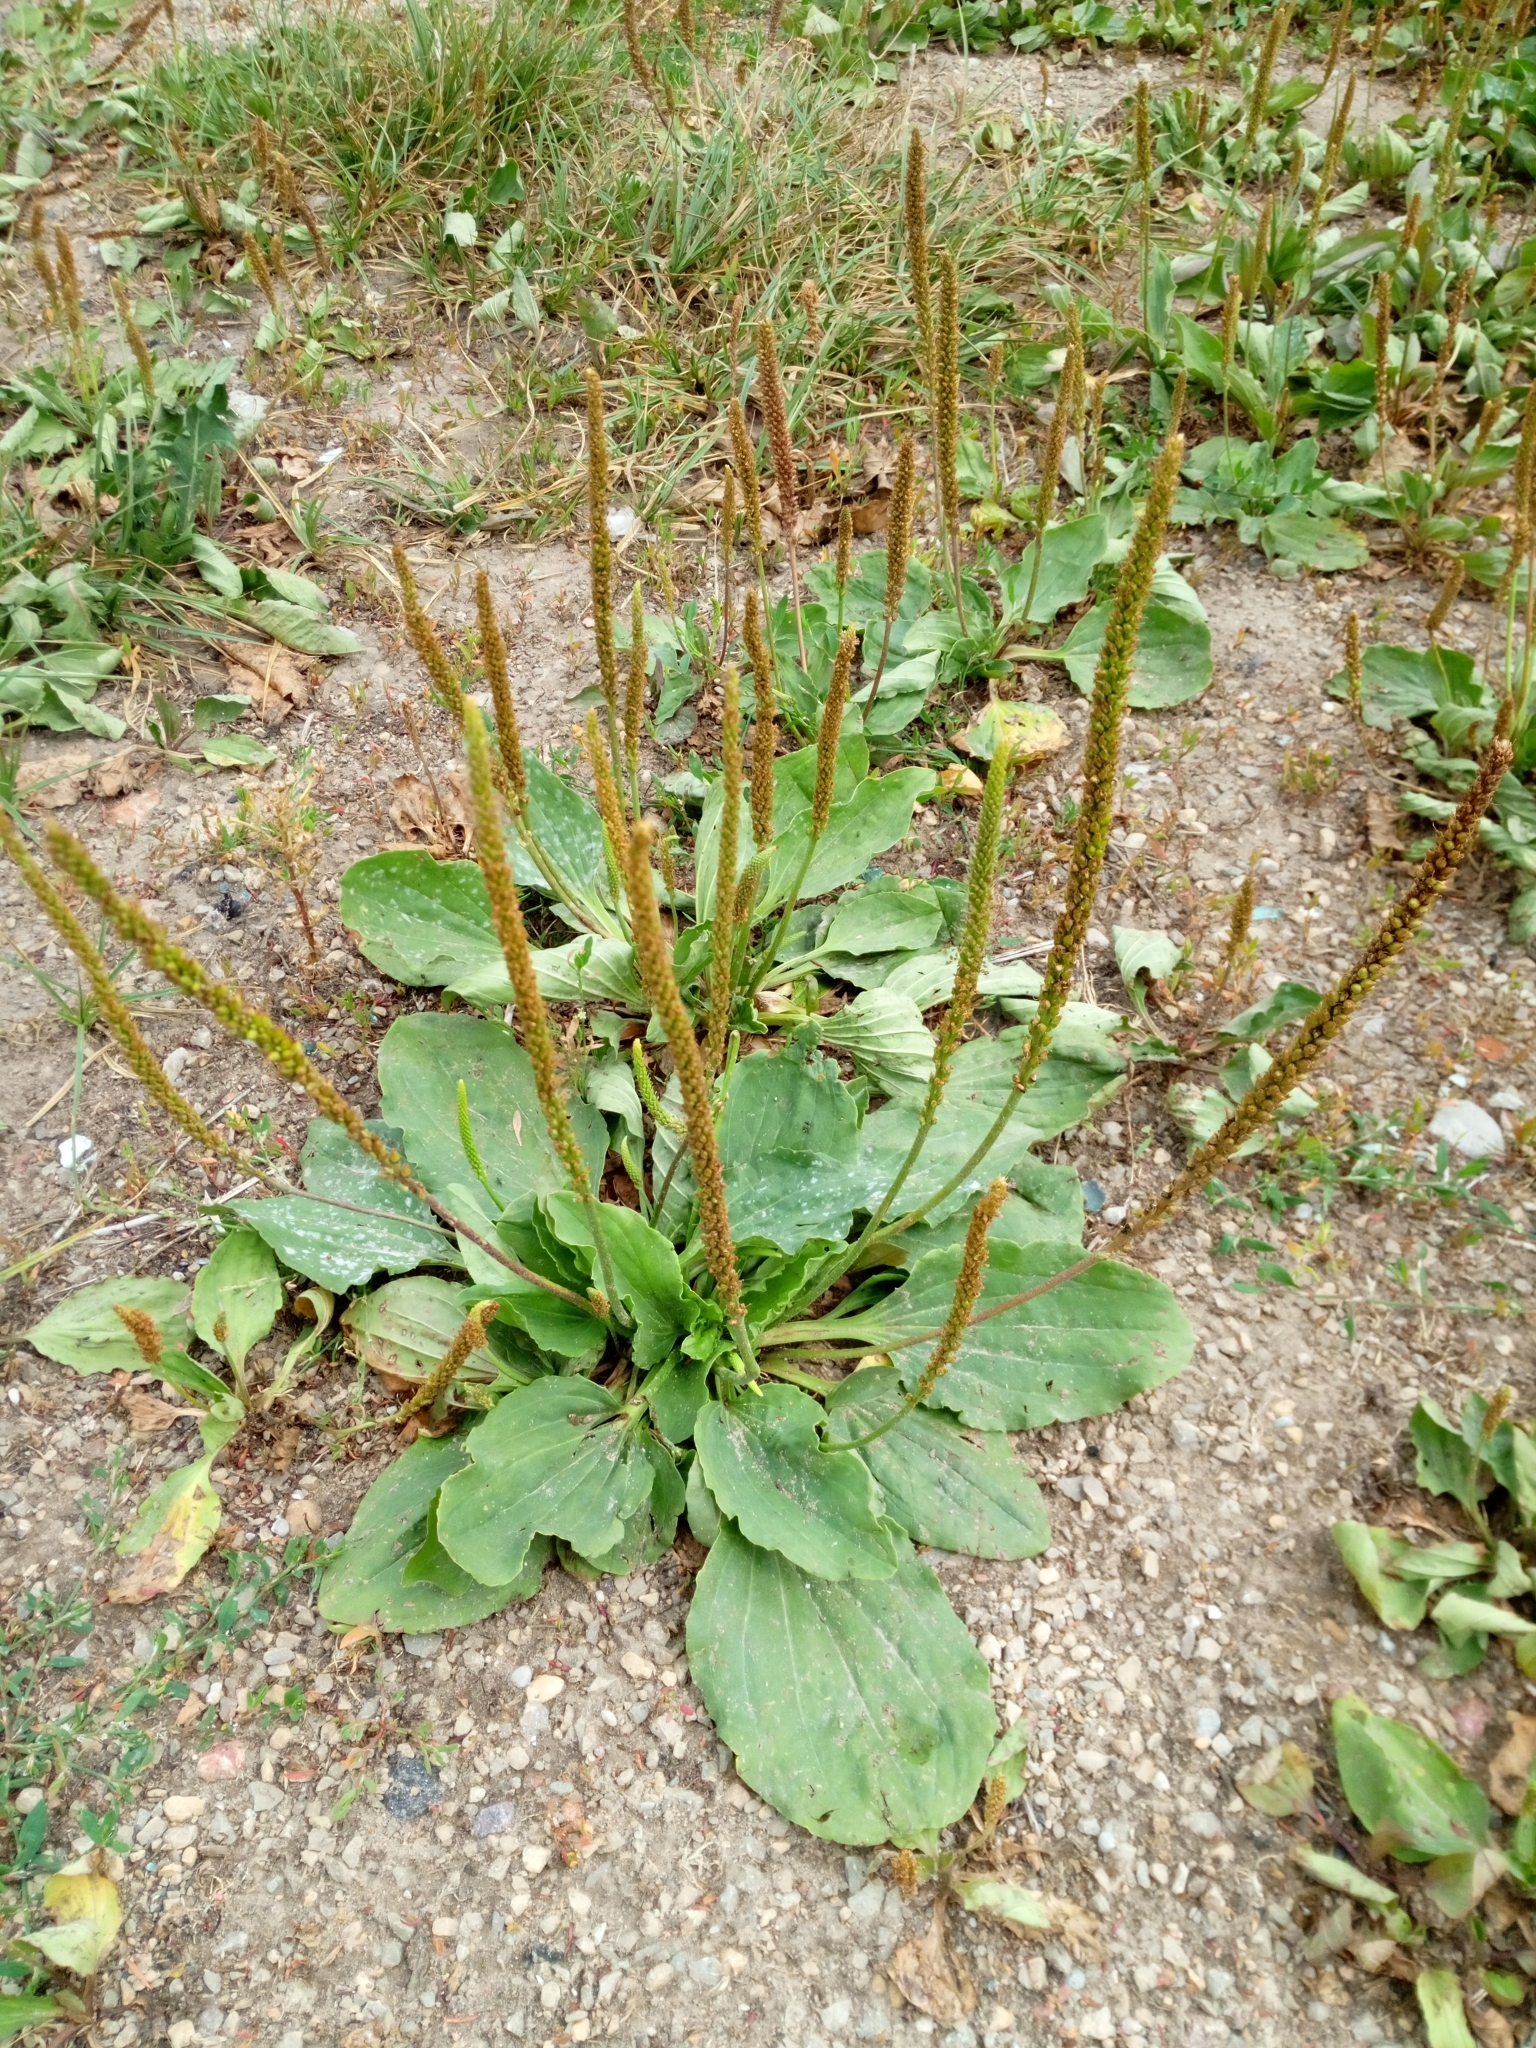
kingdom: Plantae
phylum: Tracheophyta
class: Magnoliopsida
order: Lamiales
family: Plantaginaceae
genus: Plantago
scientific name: Plantago major
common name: Common plantain
